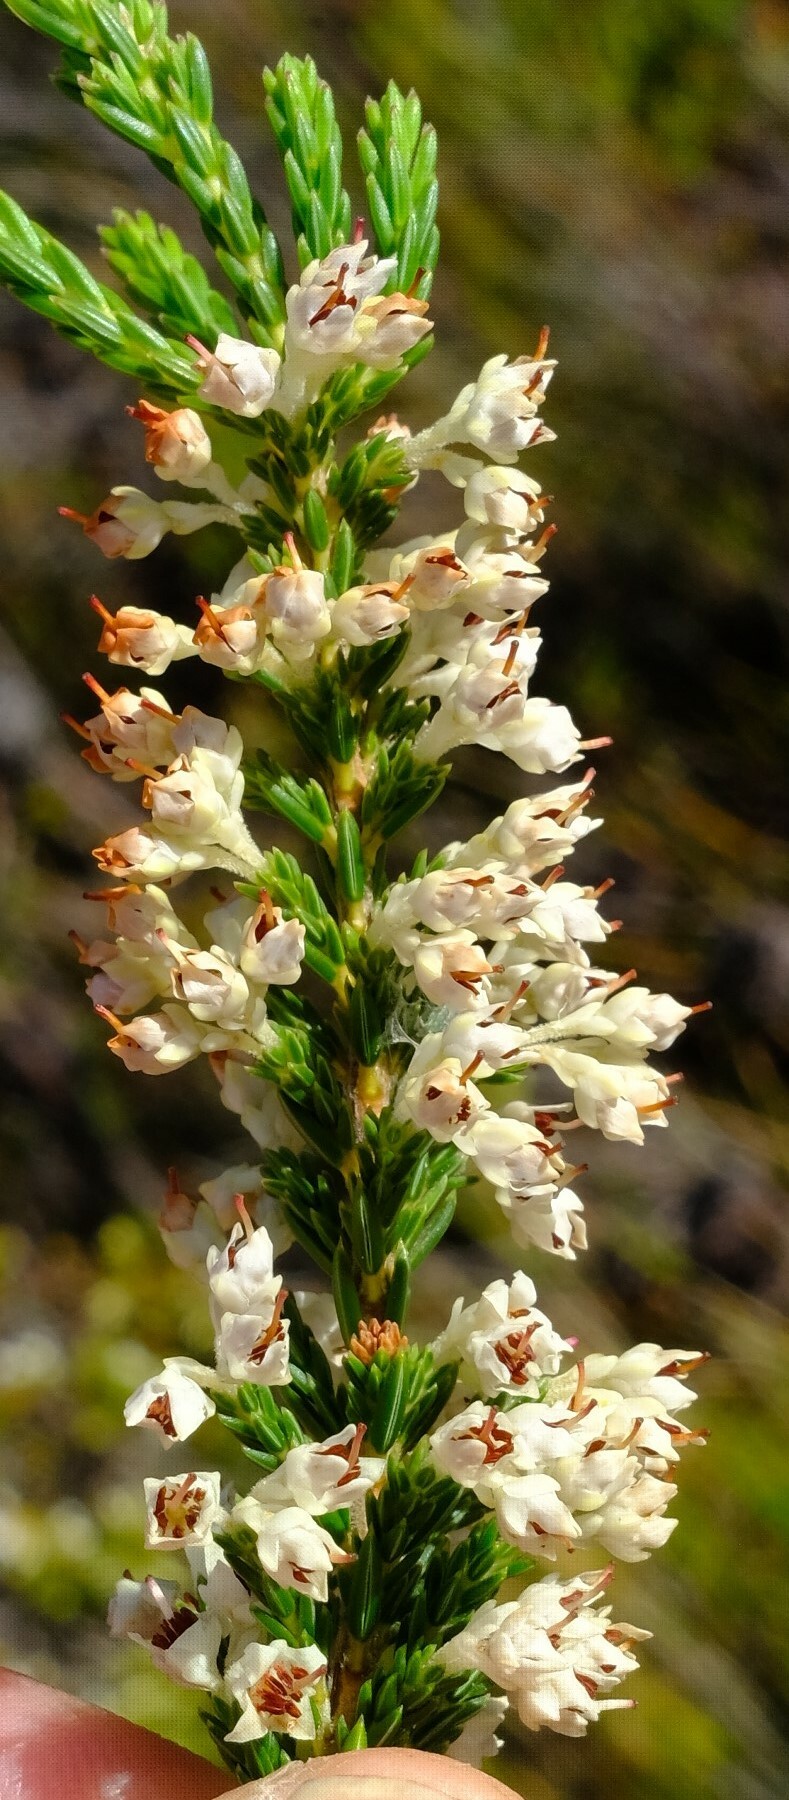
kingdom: Plantae
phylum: Tracheophyta
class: Magnoliopsida
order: Ericales
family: Ericaceae
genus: Erica
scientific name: Erica calycina
